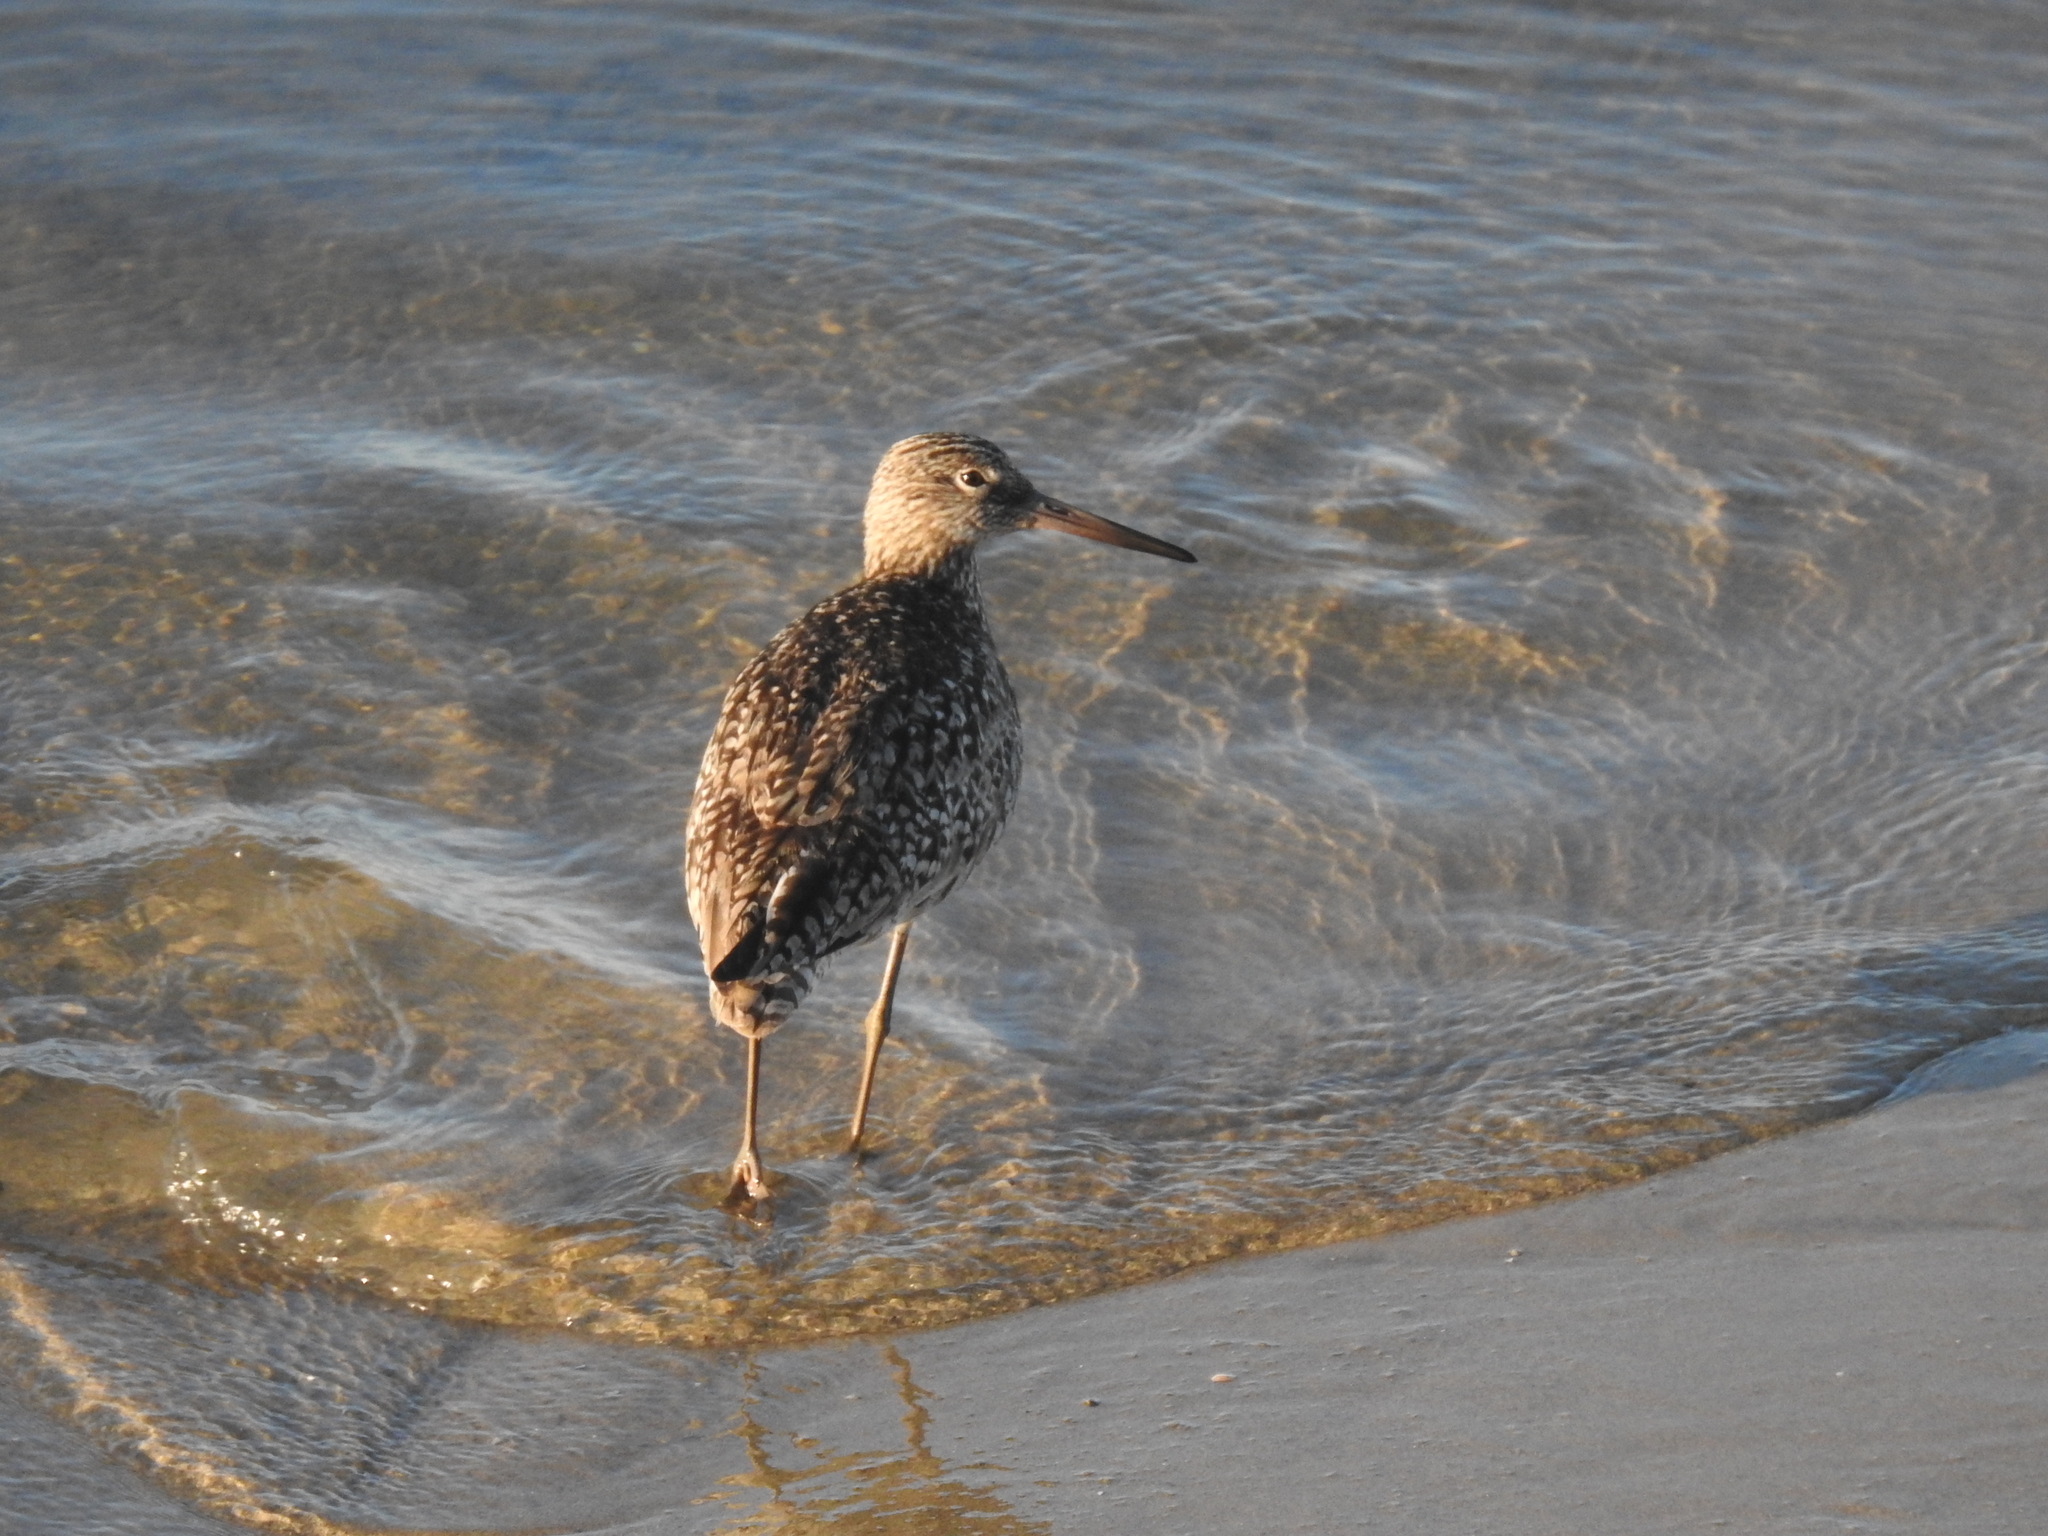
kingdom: Animalia
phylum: Chordata
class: Aves
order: Charadriiformes
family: Scolopacidae
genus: Tringa
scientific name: Tringa semipalmata
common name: Willet
